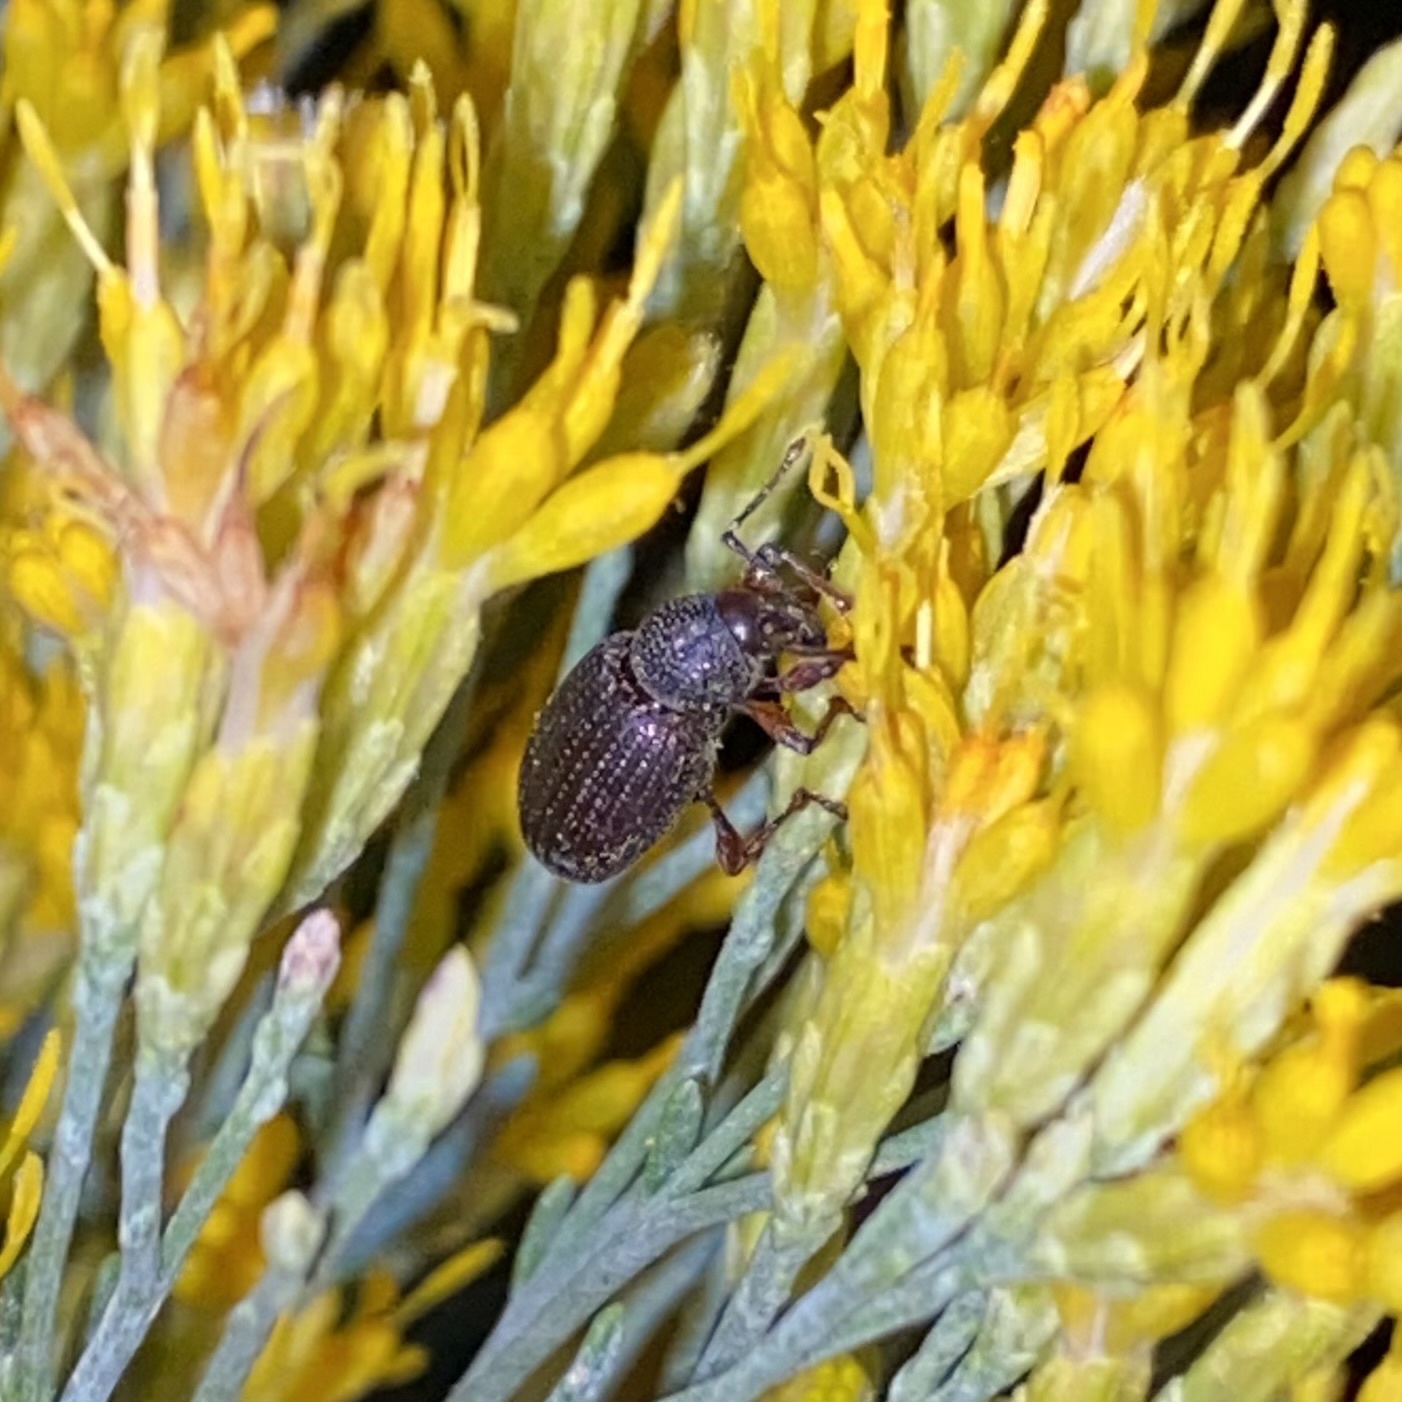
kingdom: Animalia
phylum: Arthropoda
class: Insecta
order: Coleoptera
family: Curculionidae
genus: Otiorhynchus
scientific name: Otiorhynchus cribricollis
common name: Weevil
